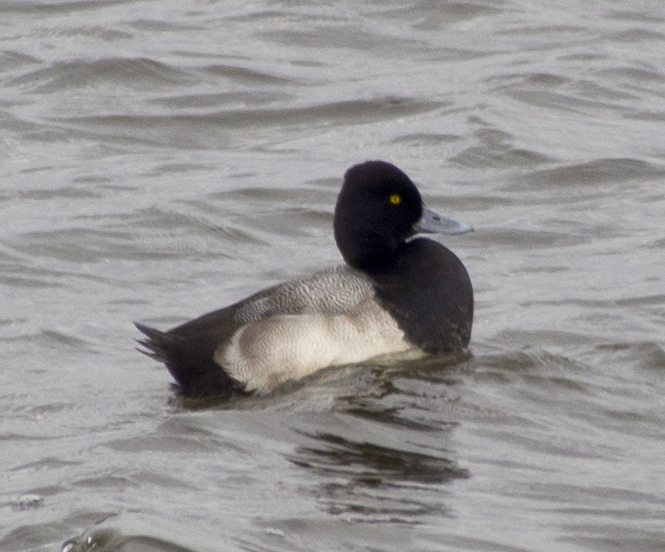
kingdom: Animalia
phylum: Chordata
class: Aves
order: Anseriformes
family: Anatidae
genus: Aythya
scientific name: Aythya affinis
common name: Lesser scaup
